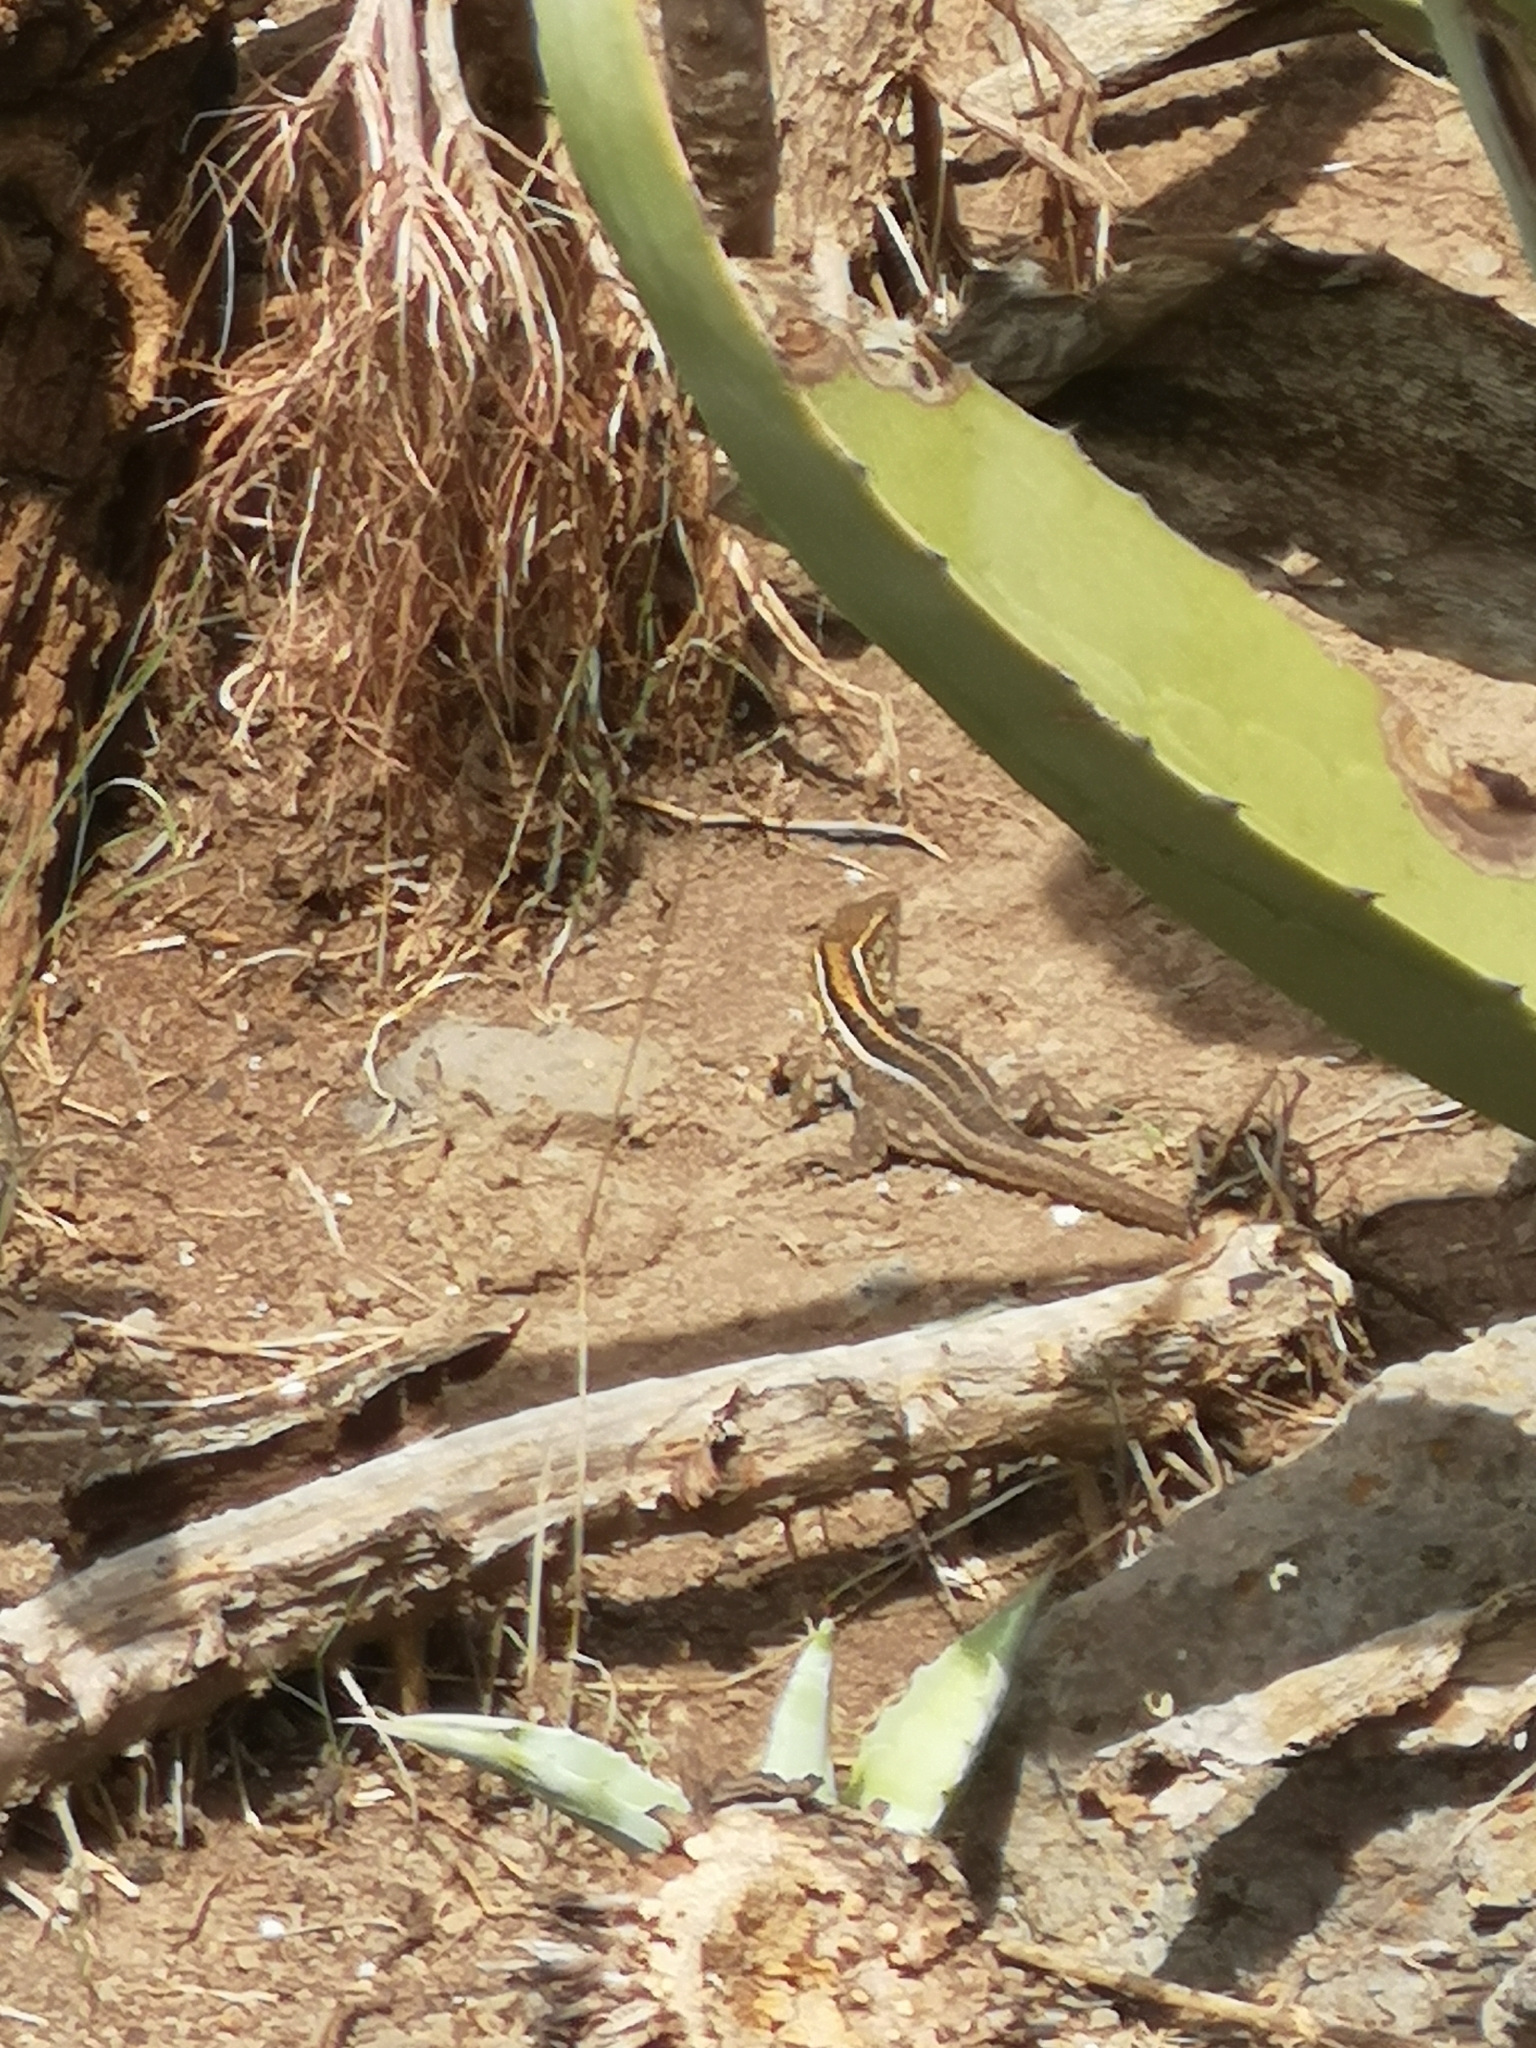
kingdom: Animalia
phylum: Chordata
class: Squamata
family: Lacertidae
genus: Gallotia
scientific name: Gallotia galloti
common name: Gallot's lizard
